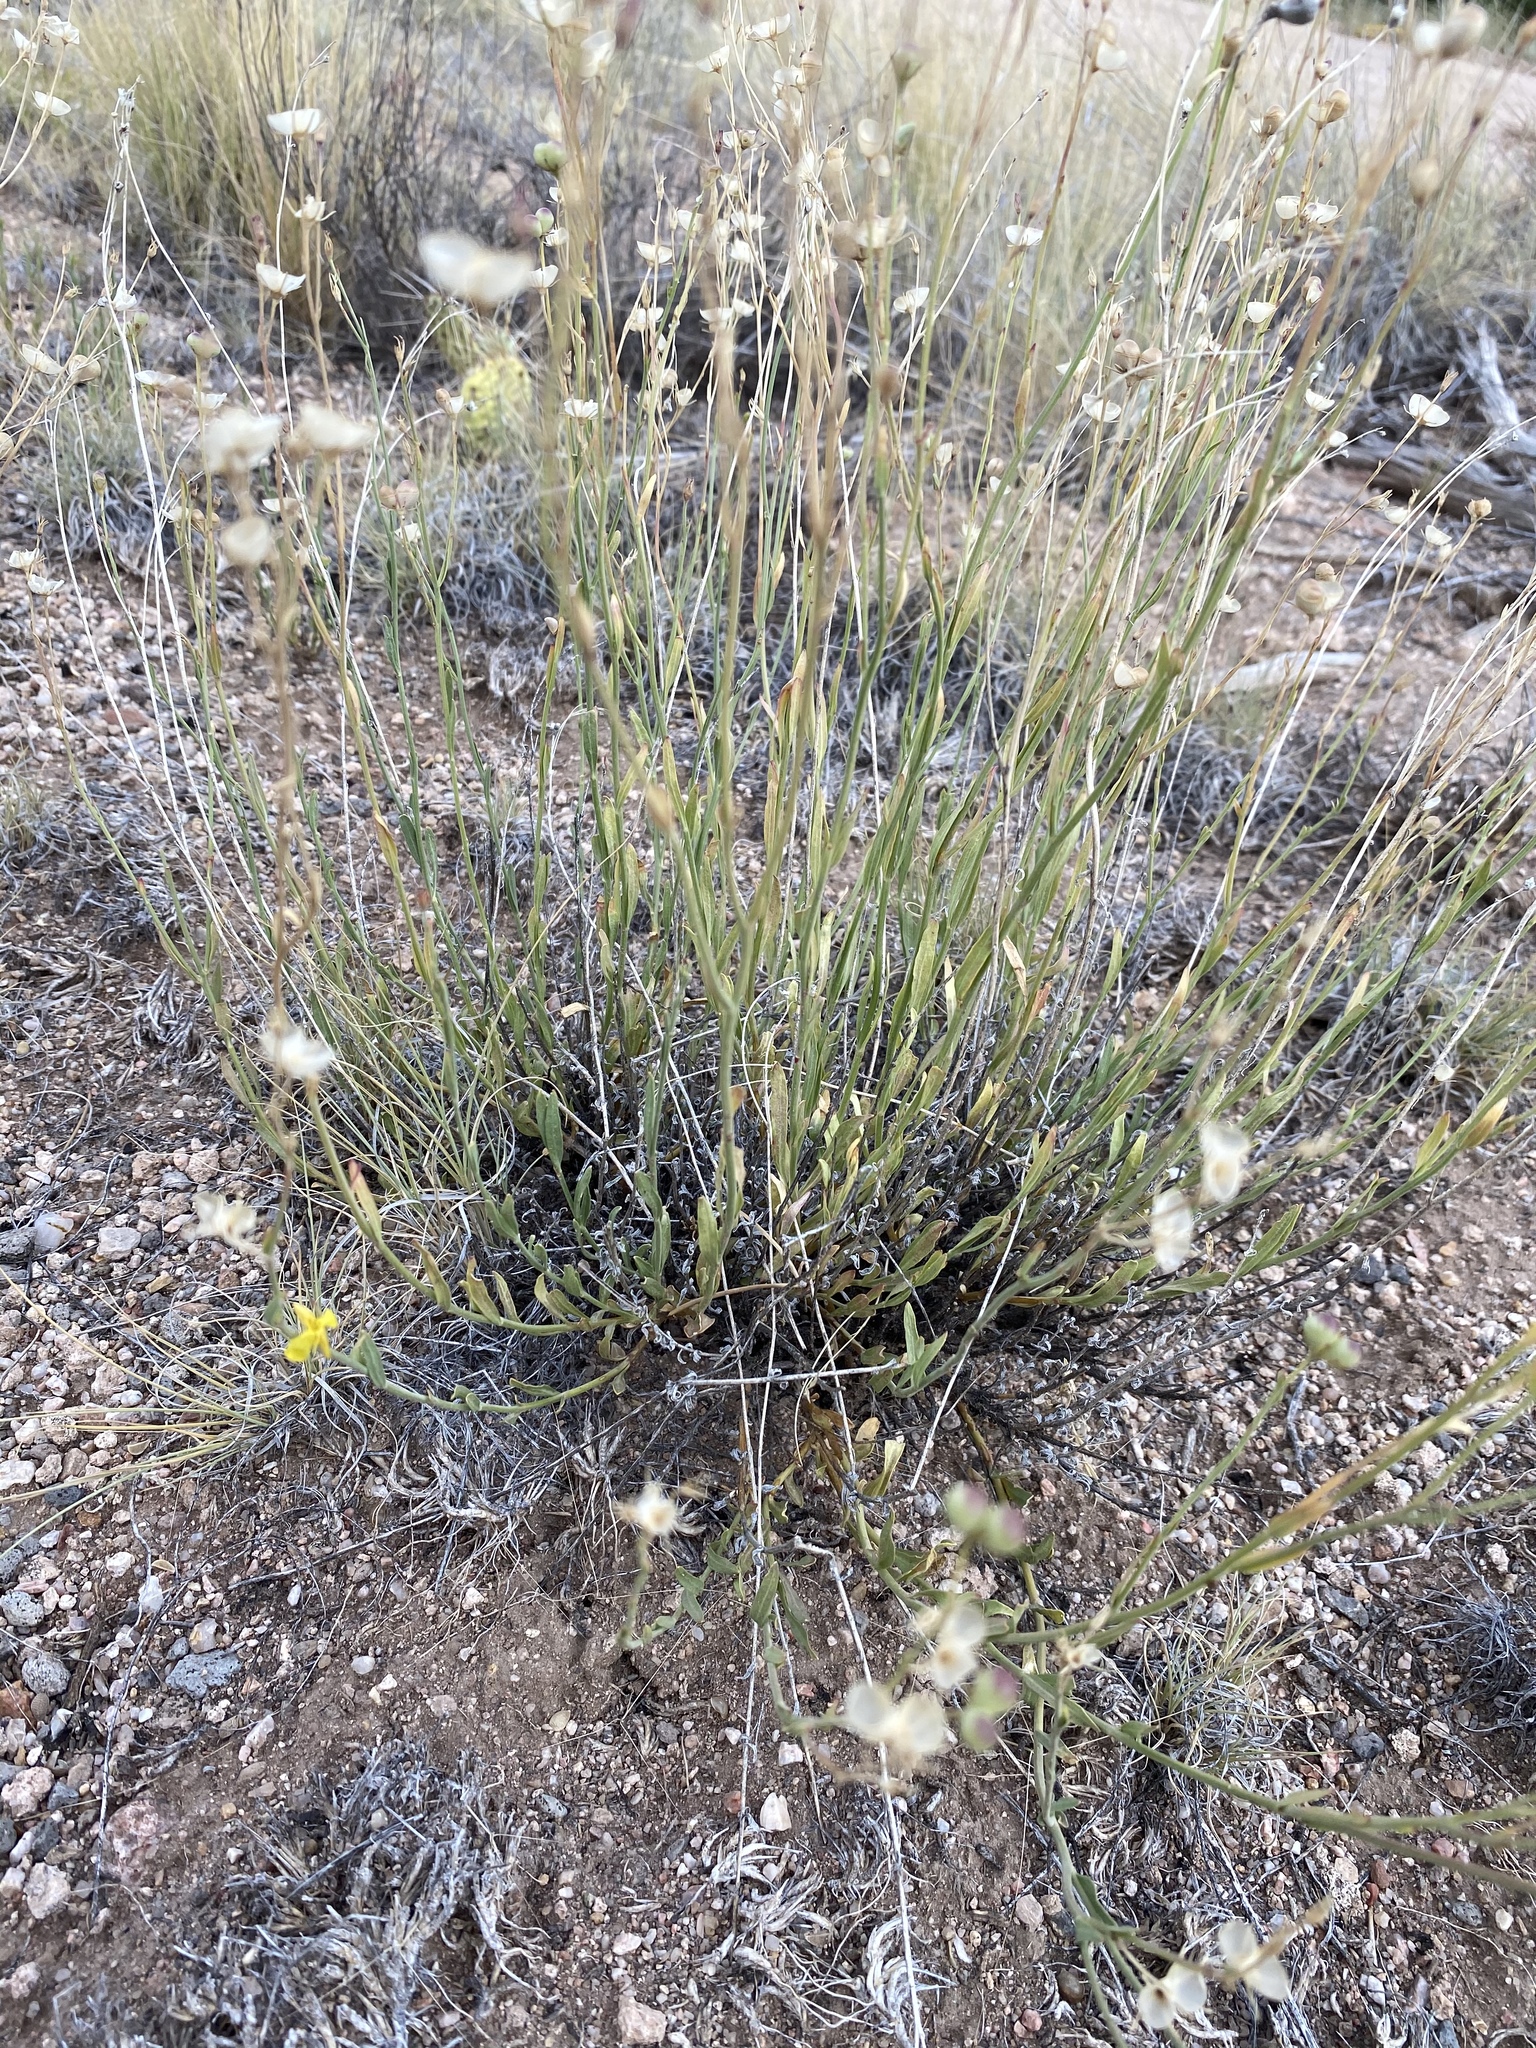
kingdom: Plantae
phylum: Tracheophyta
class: Magnoliopsida
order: Lamiales
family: Oleaceae
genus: Menodora
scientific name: Menodora scabra
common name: Rough menodora
